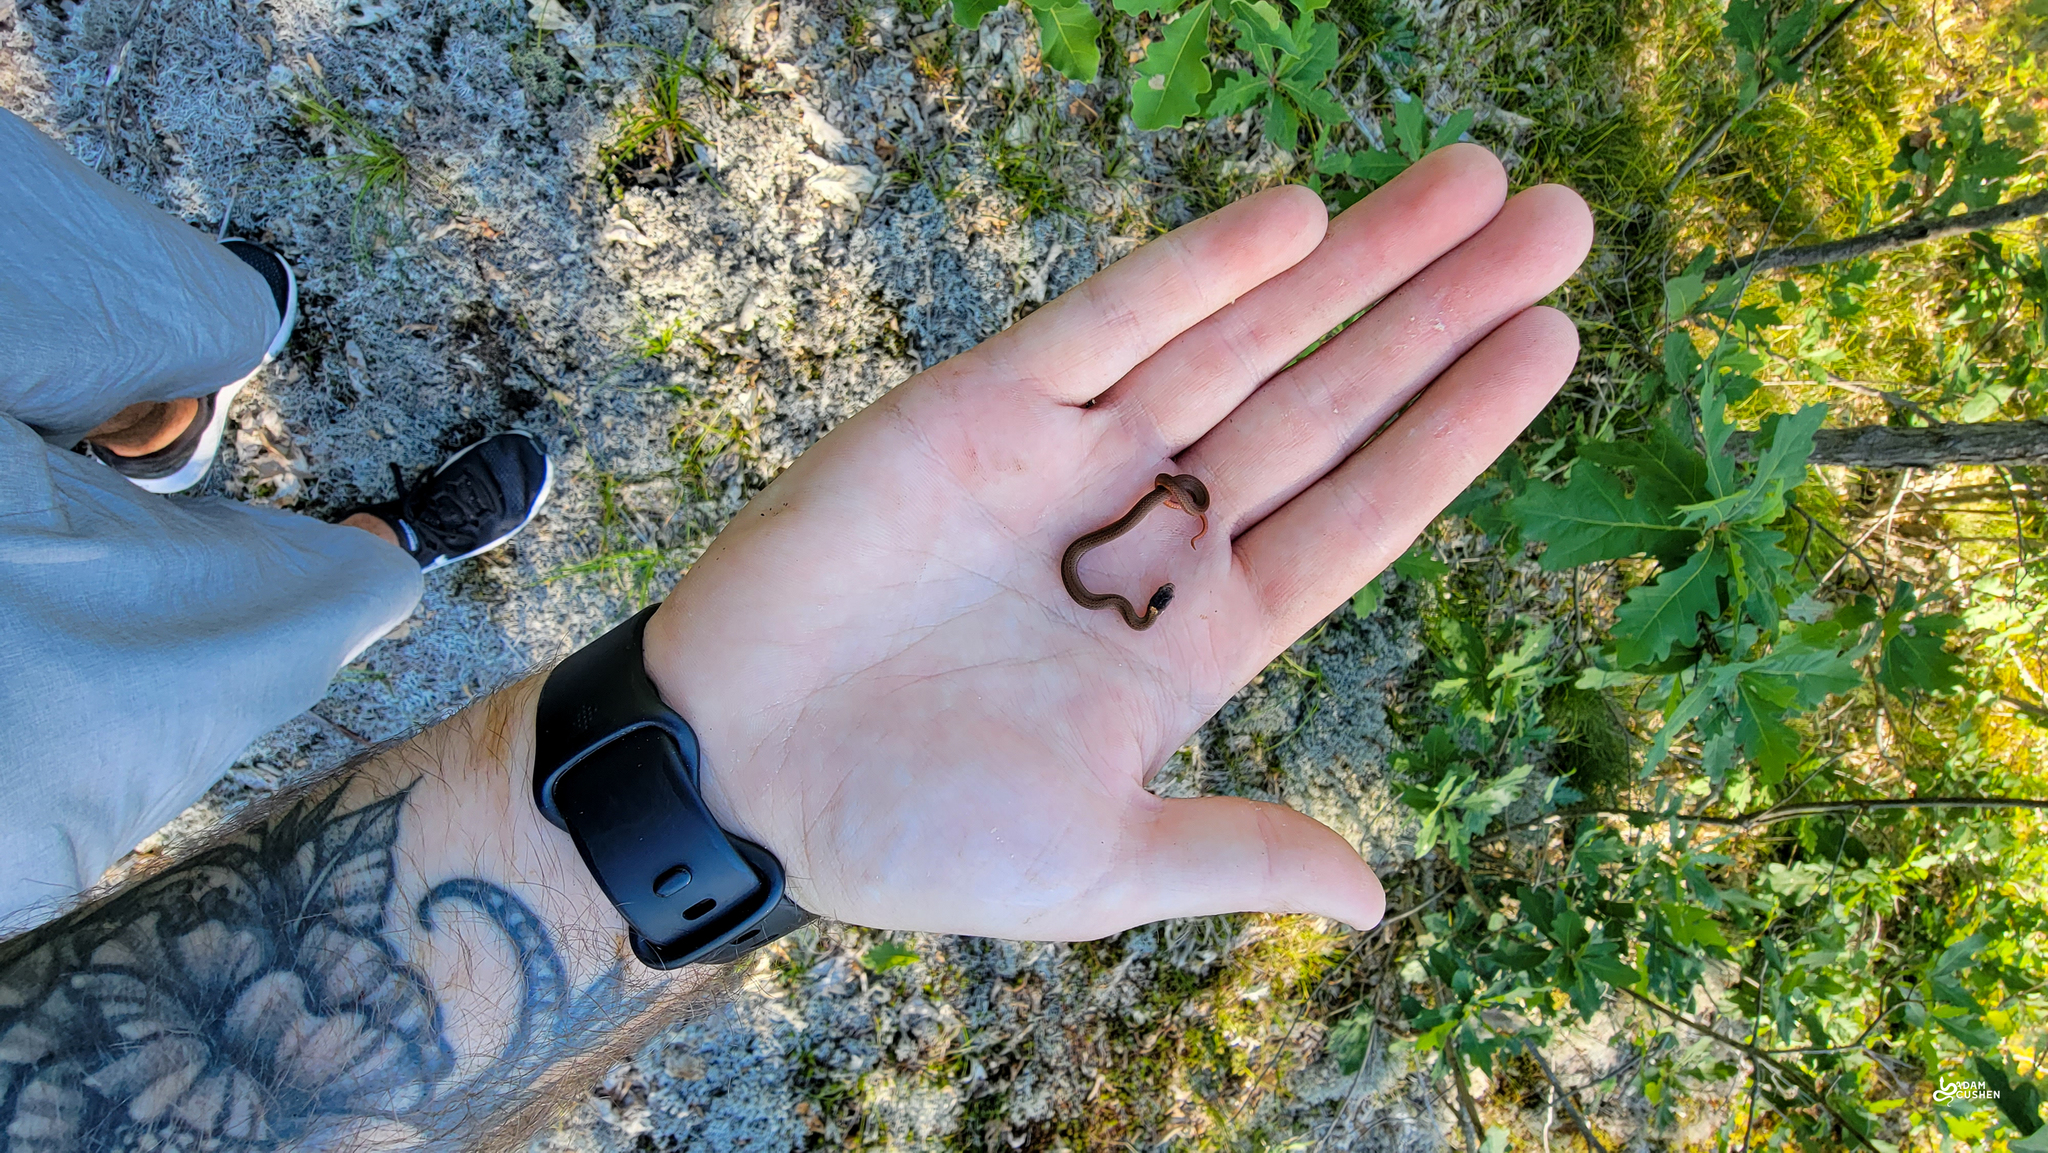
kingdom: Animalia
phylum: Chordata
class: Squamata
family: Colubridae
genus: Storeria
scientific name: Storeria occipitomaculata
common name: Redbelly snake
